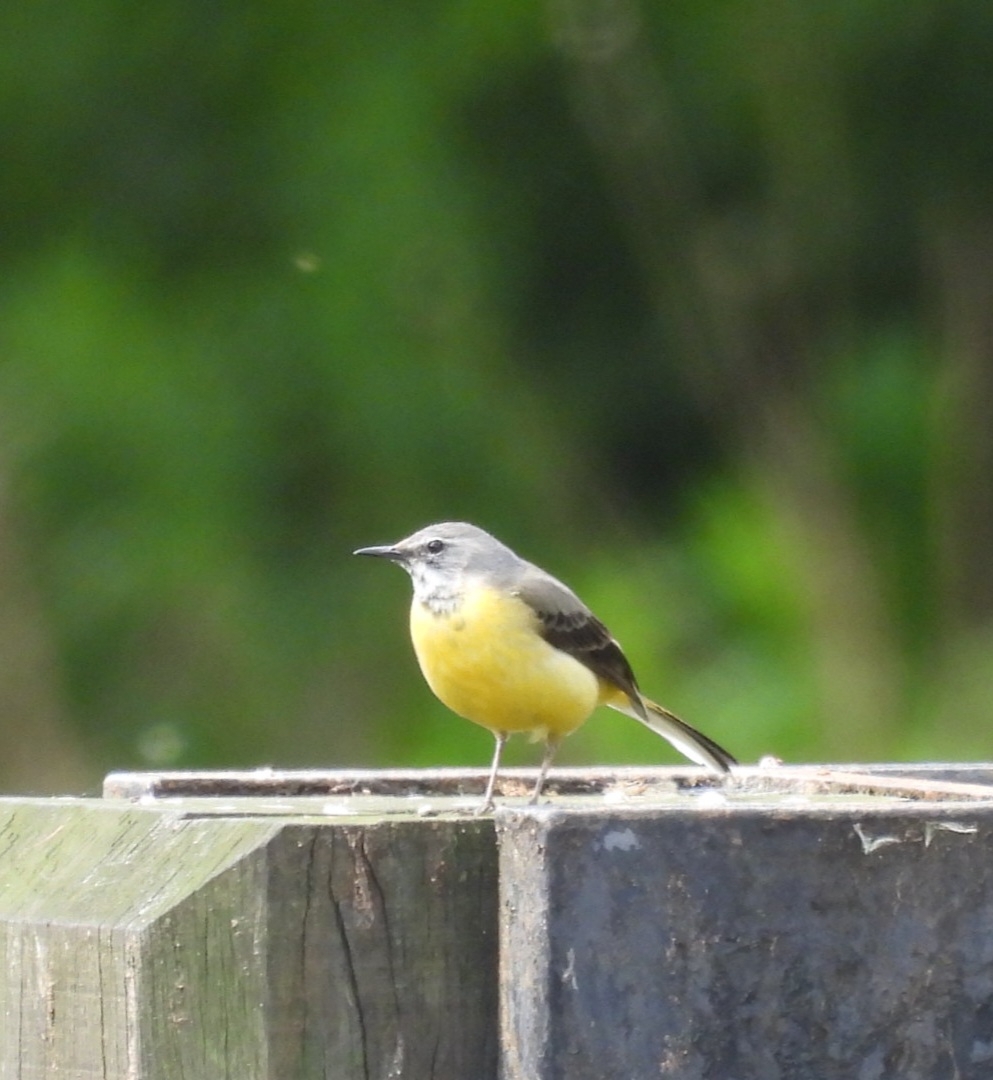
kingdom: Animalia
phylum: Chordata
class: Aves
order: Passeriformes
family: Motacillidae
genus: Motacilla
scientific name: Motacilla cinerea
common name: Grey wagtail
